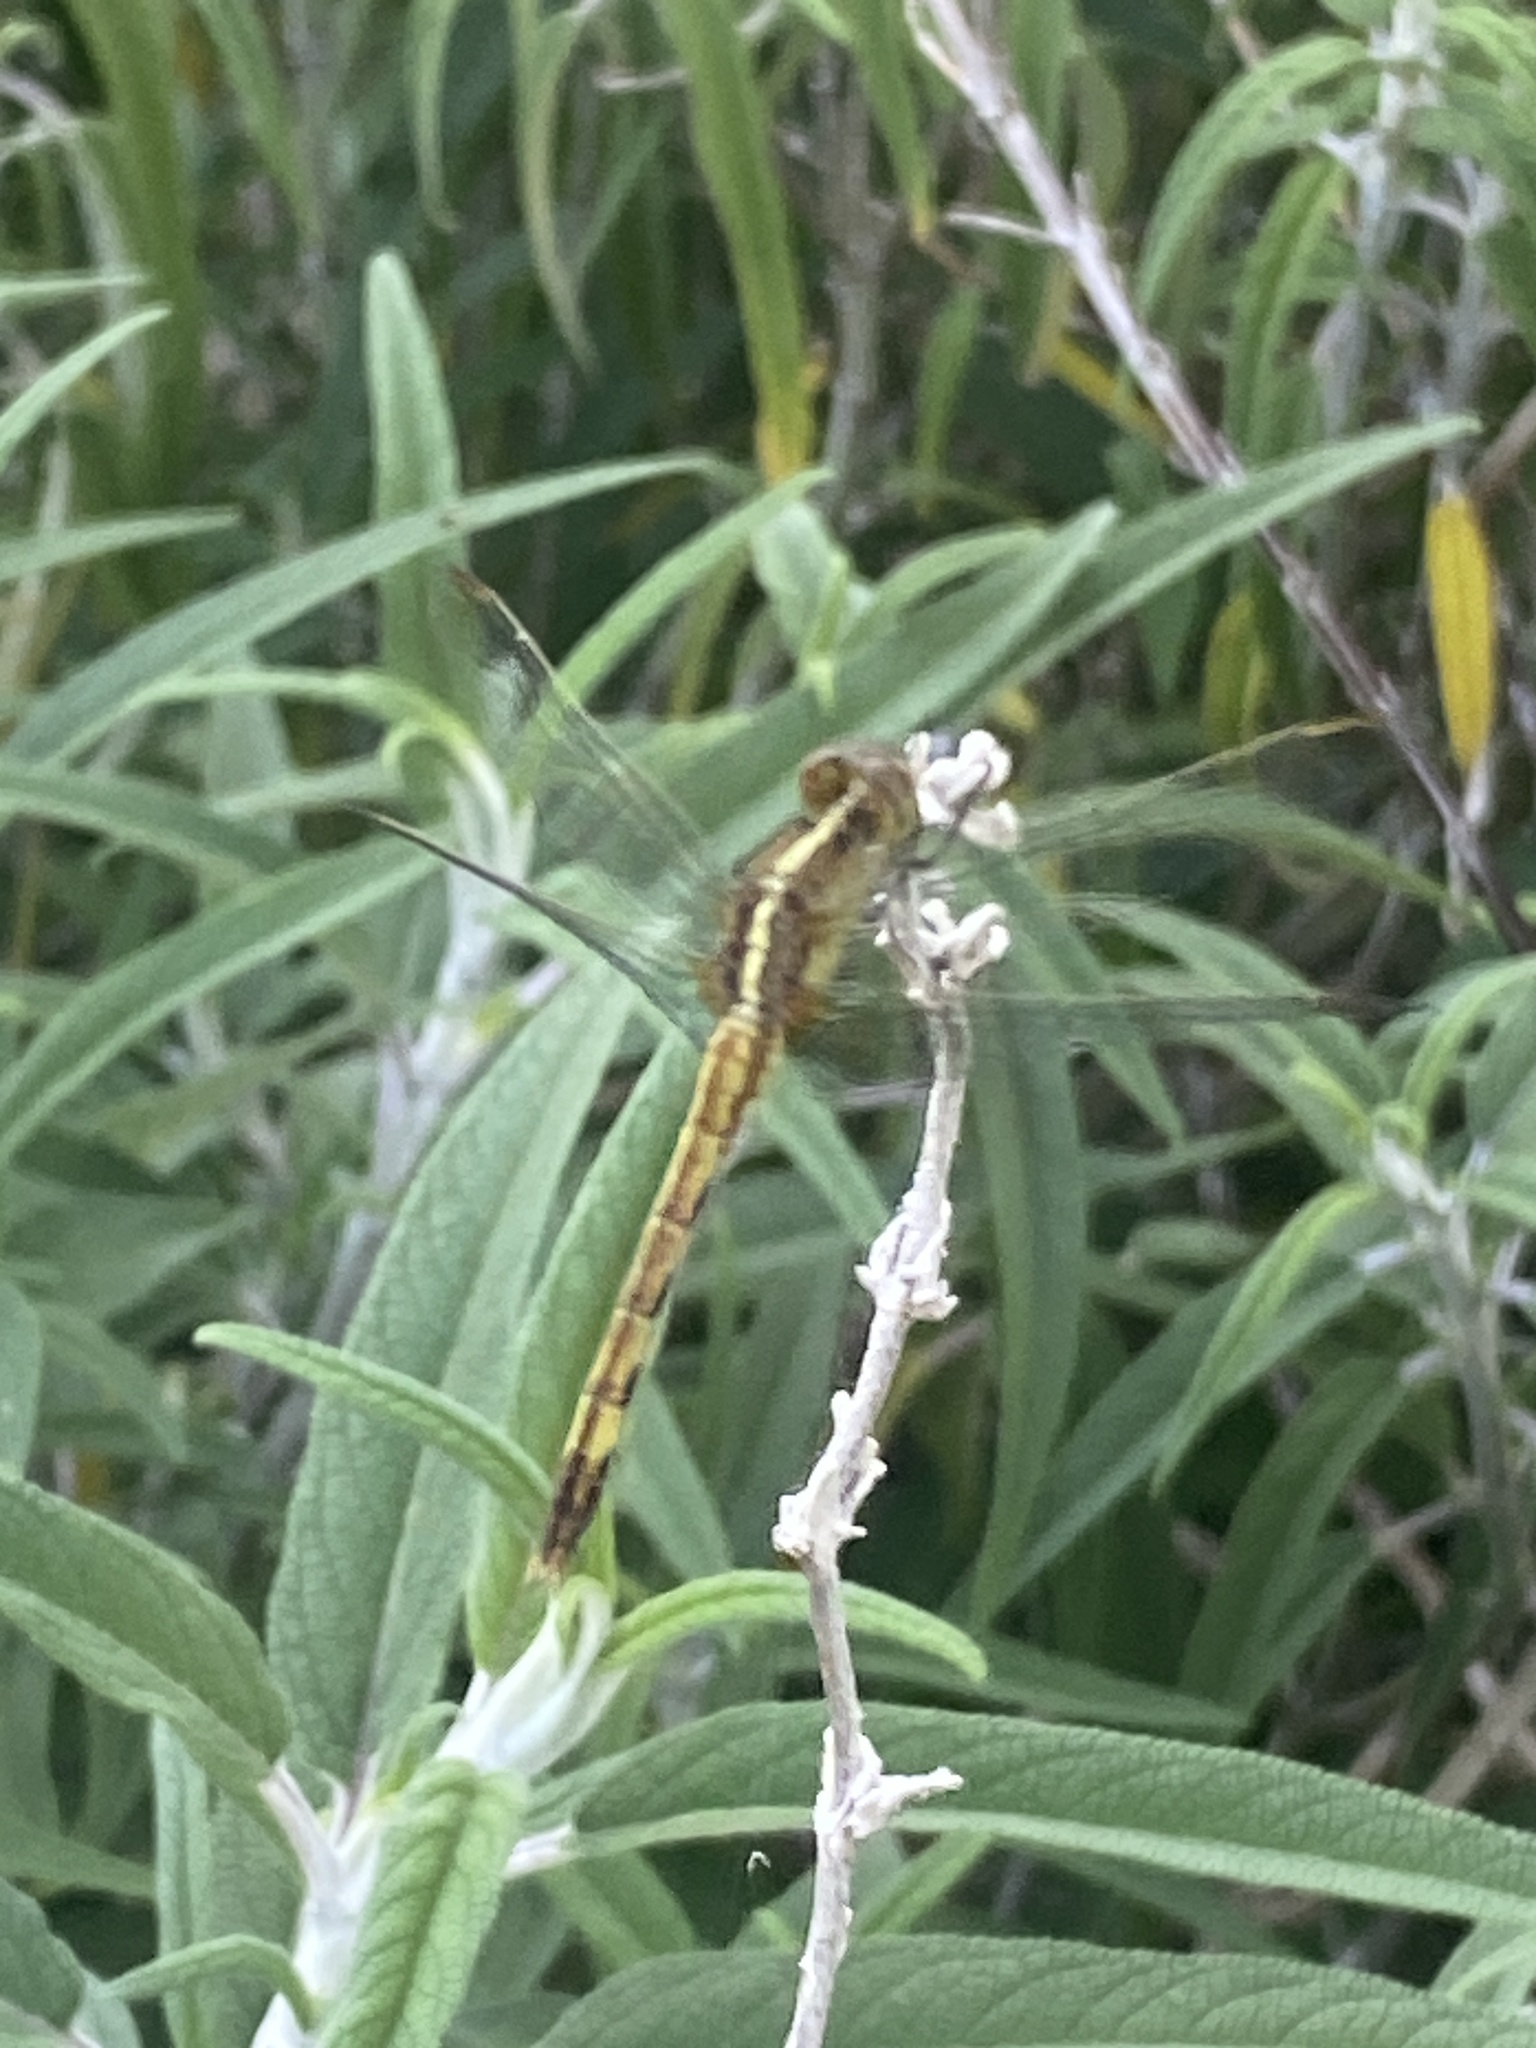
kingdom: Animalia
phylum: Arthropoda
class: Insecta
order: Odonata
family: Libellulidae
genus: Erythrodiplax
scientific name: Erythrodiplax nigricans
